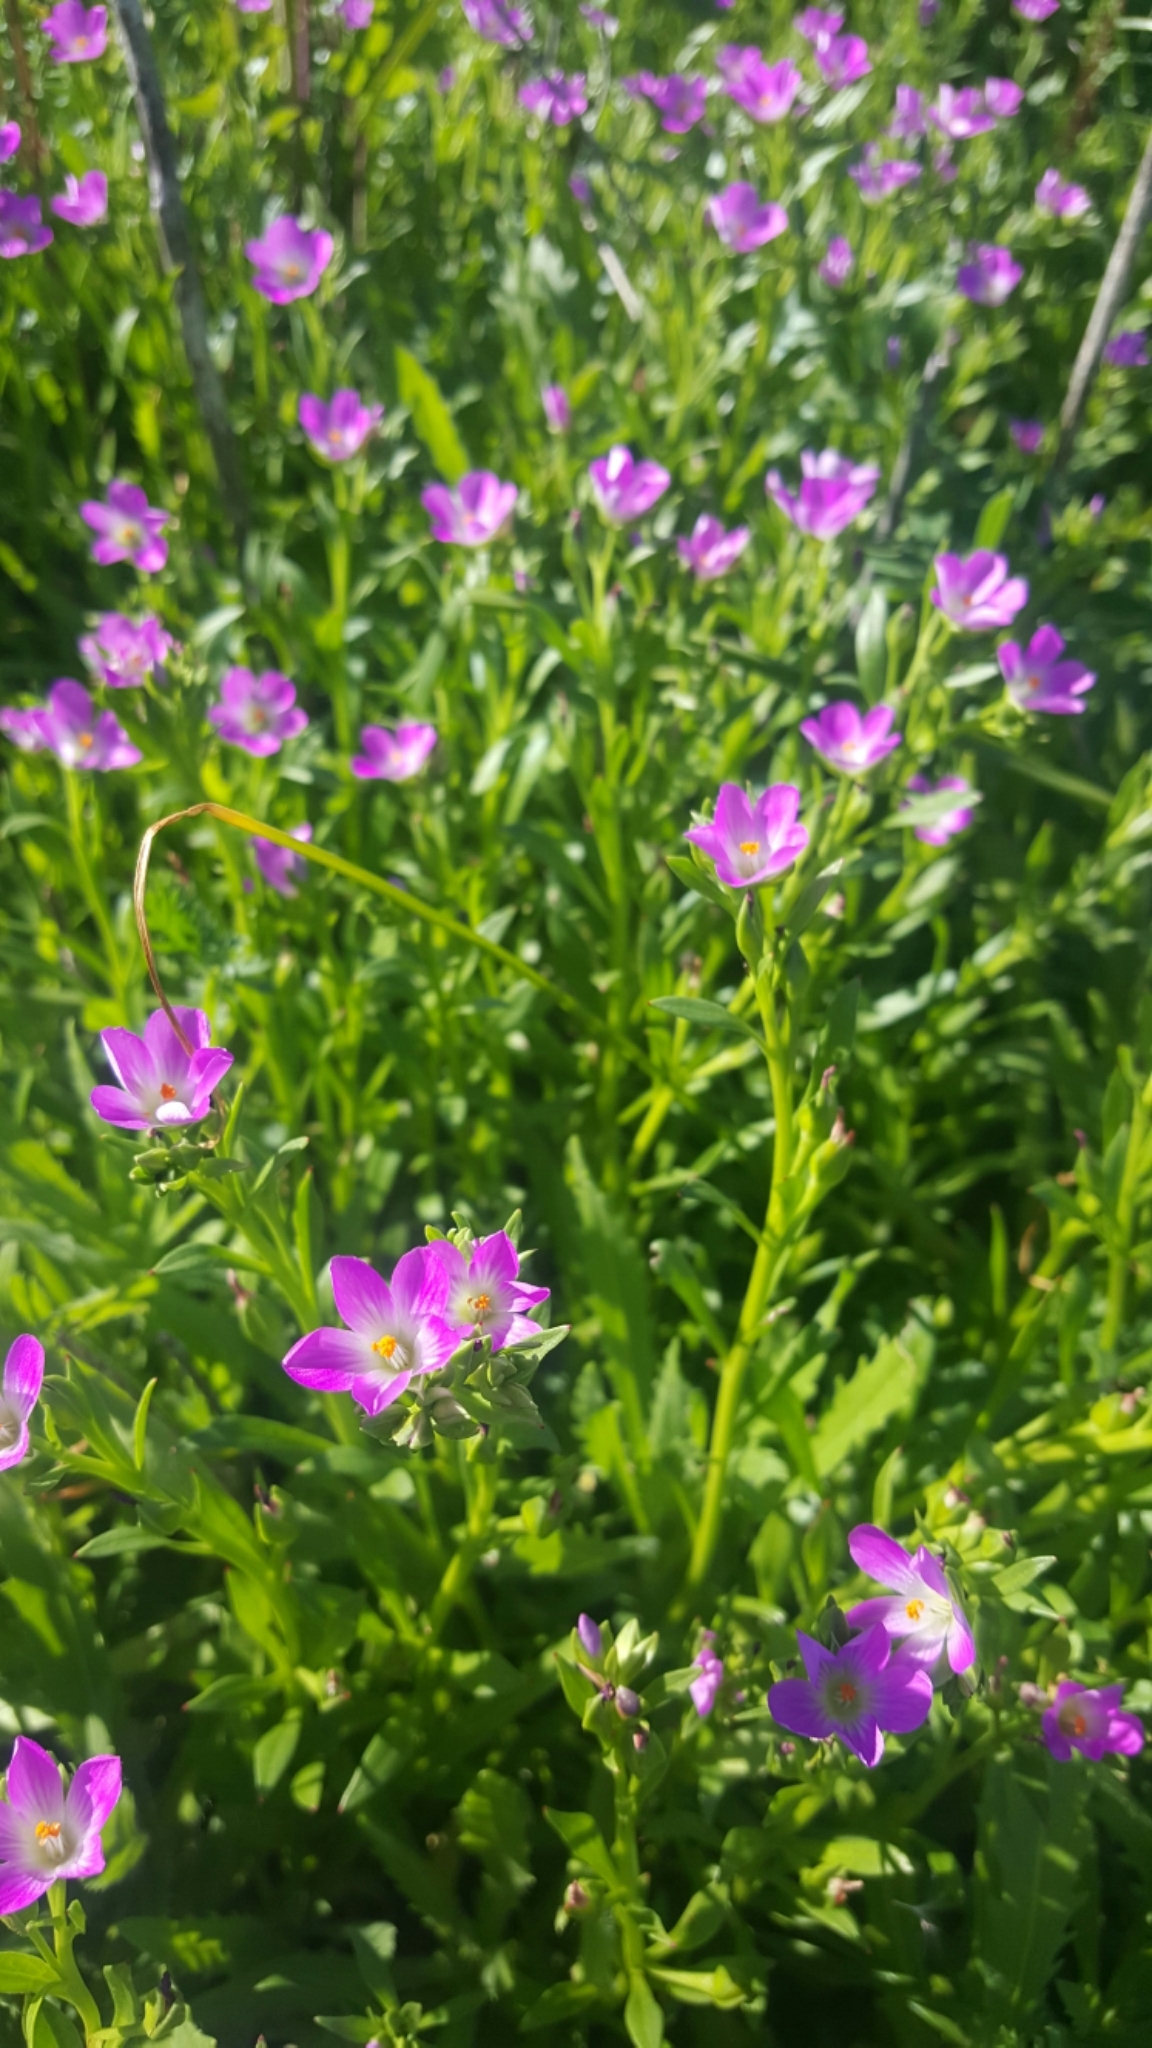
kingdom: Plantae
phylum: Tracheophyta
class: Magnoliopsida
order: Caryophyllales
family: Montiaceae
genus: Calandrinia
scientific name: Calandrinia menziesii
